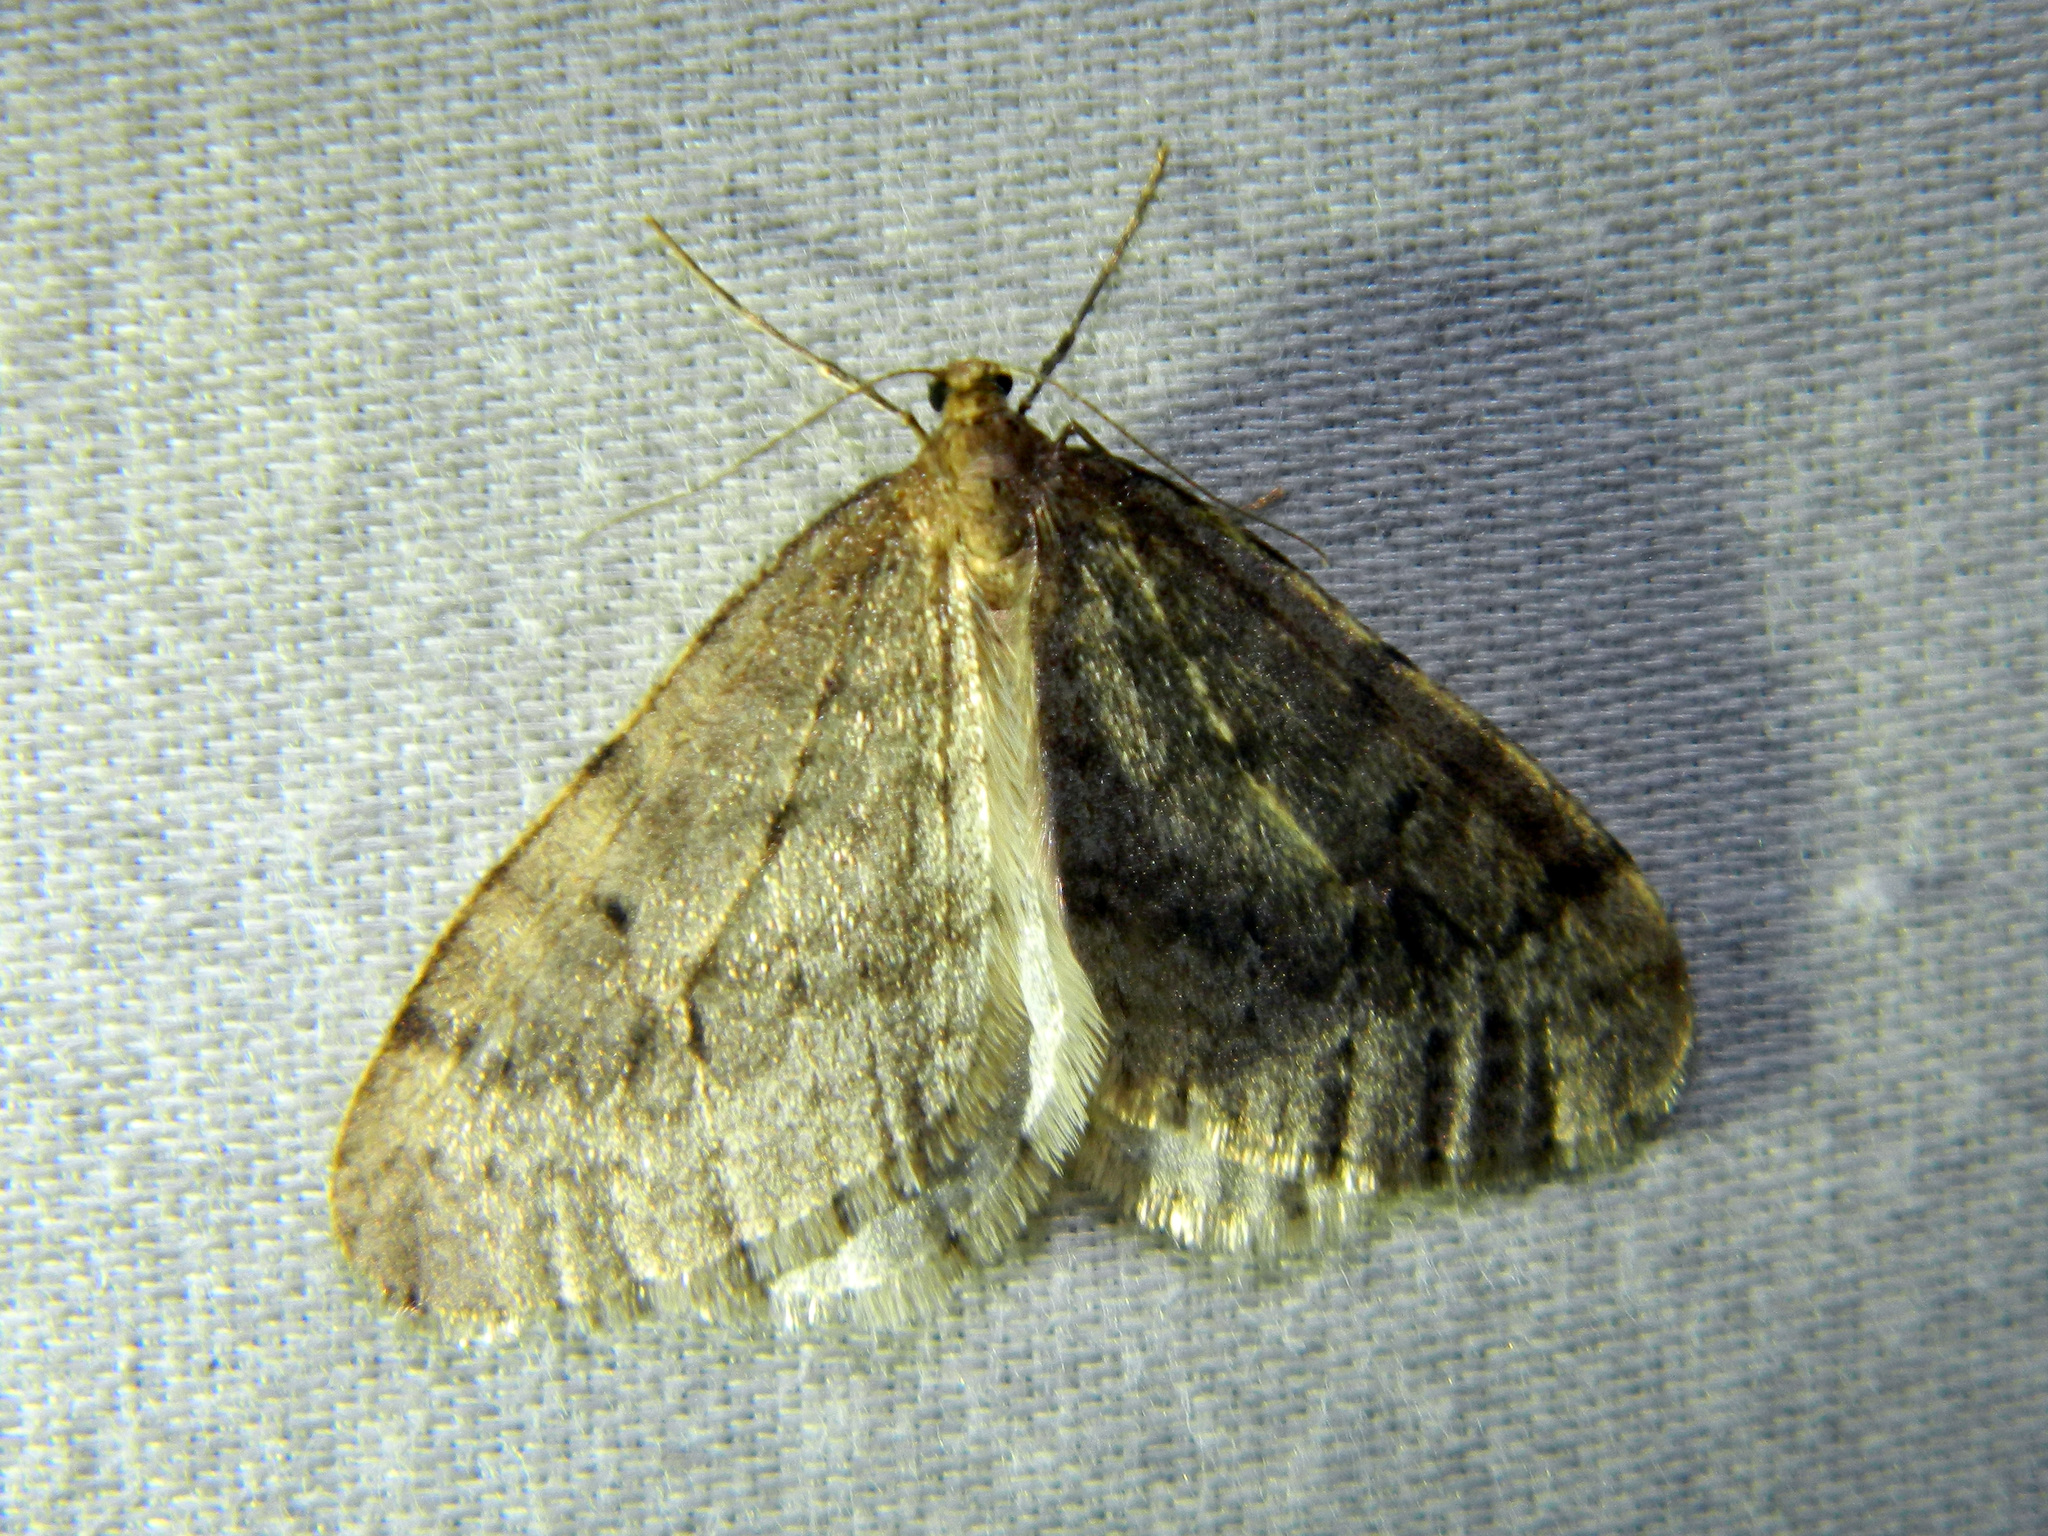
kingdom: Animalia
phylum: Arthropoda
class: Insecta
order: Lepidoptera
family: Geometridae
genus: Operophtera
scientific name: Operophtera bruceata
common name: Bruce spanworm
